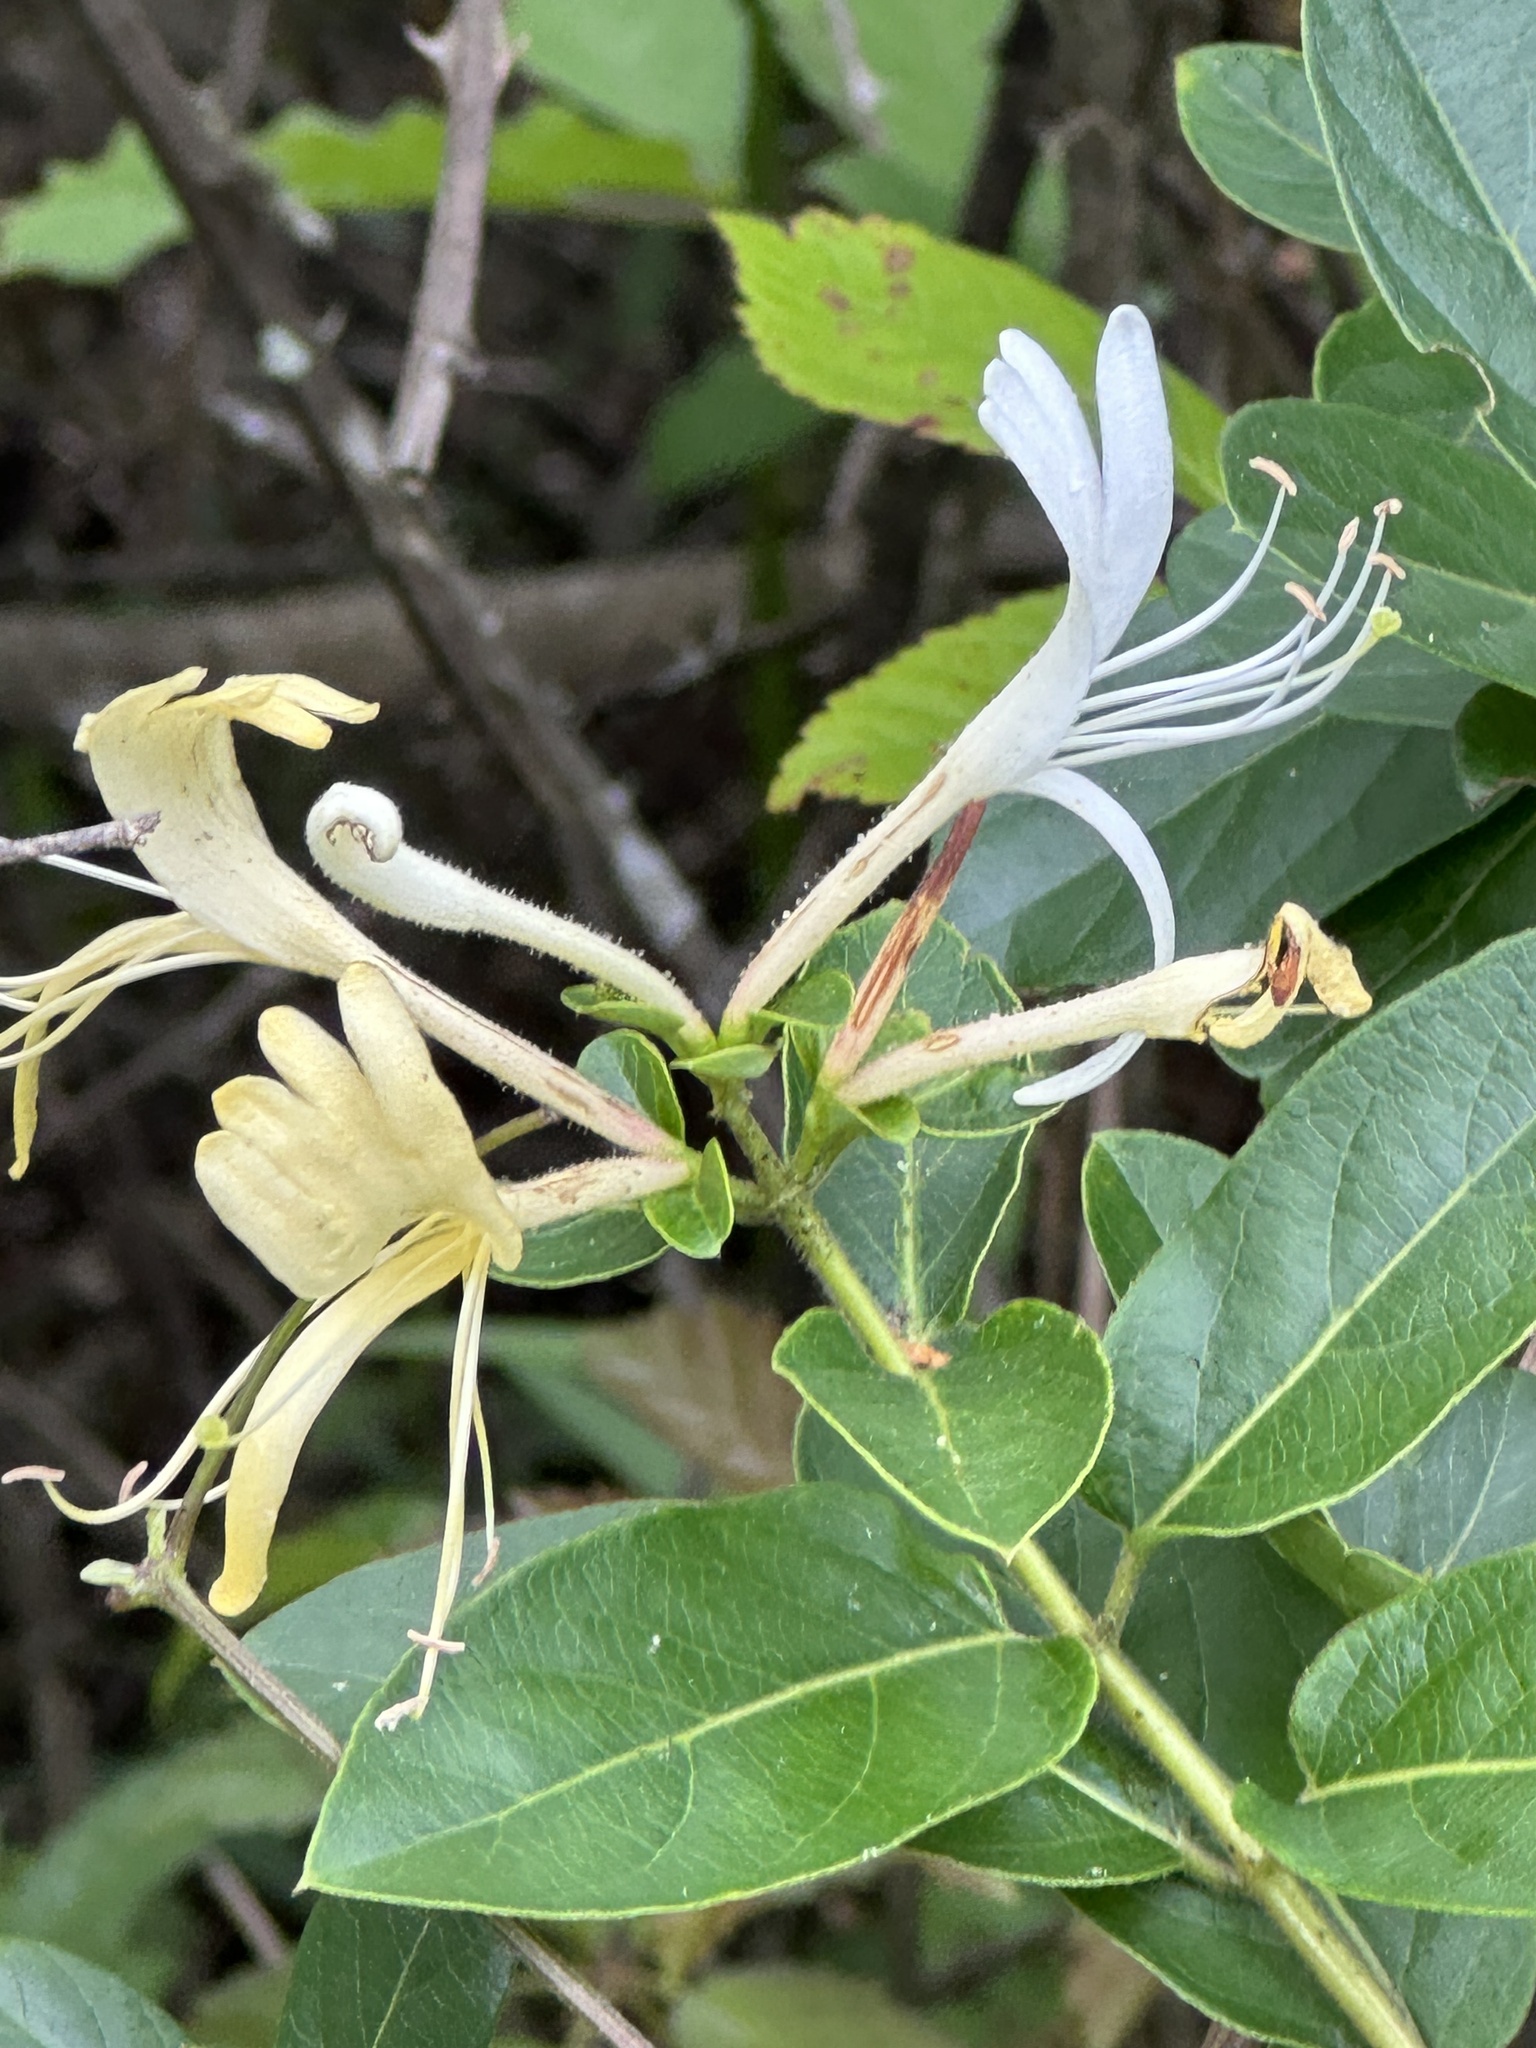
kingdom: Plantae
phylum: Tracheophyta
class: Magnoliopsida
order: Dipsacales
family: Caprifoliaceae
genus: Lonicera
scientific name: Lonicera japonica
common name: Japanese honeysuckle
